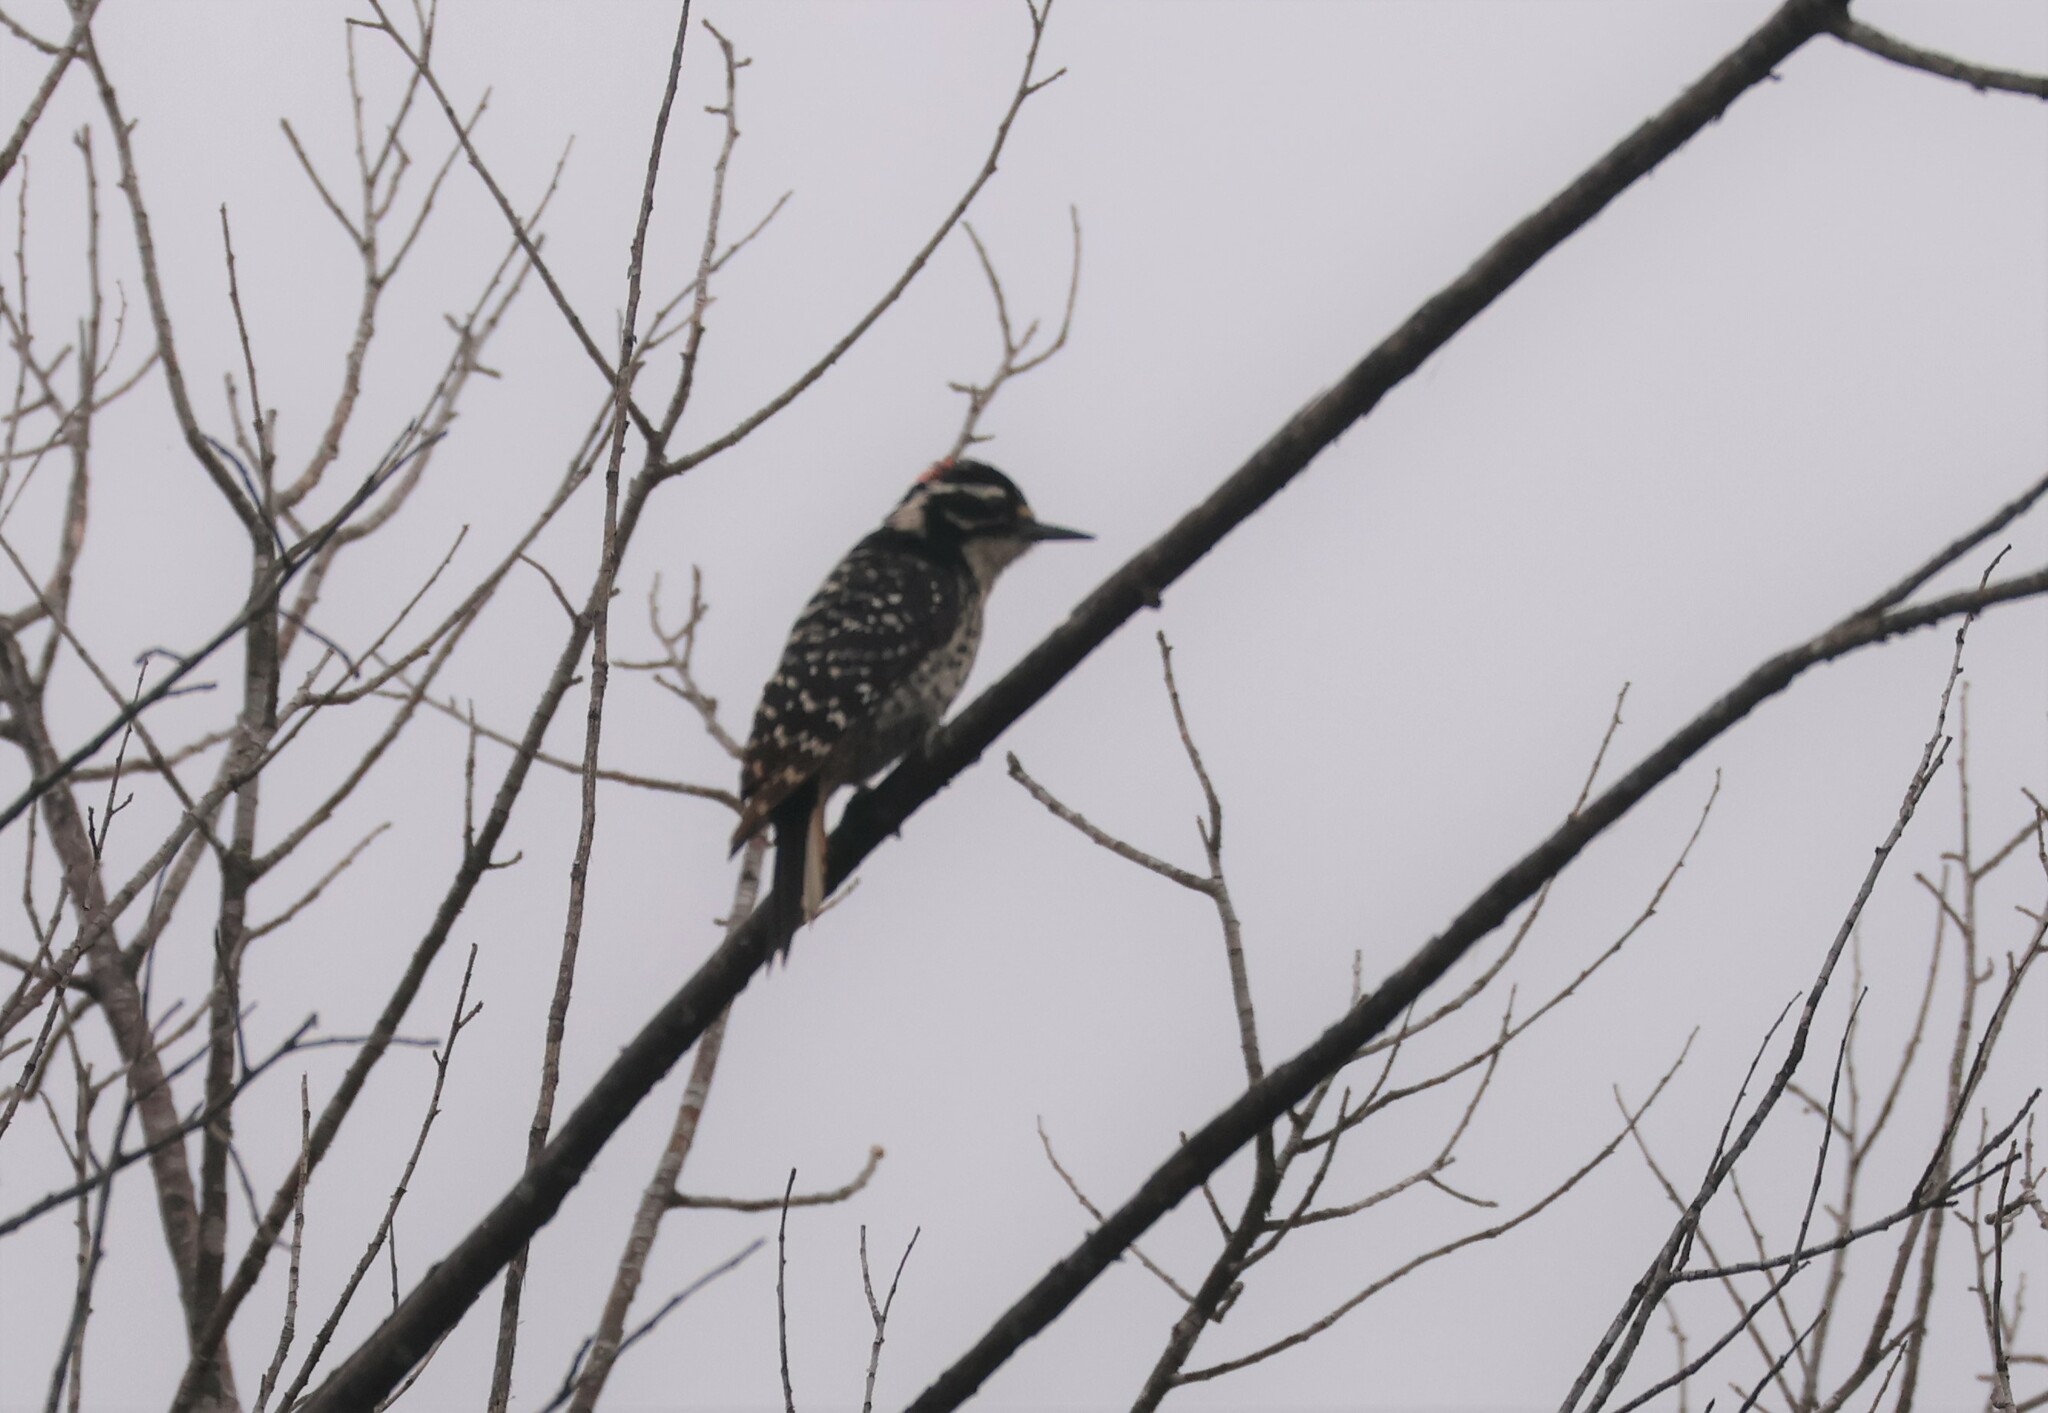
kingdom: Animalia
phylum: Chordata
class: Aves
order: Piciformes
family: Picidae
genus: Dryobates
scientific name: Dryobates nuttallii
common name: Nuttall's woodpecker
